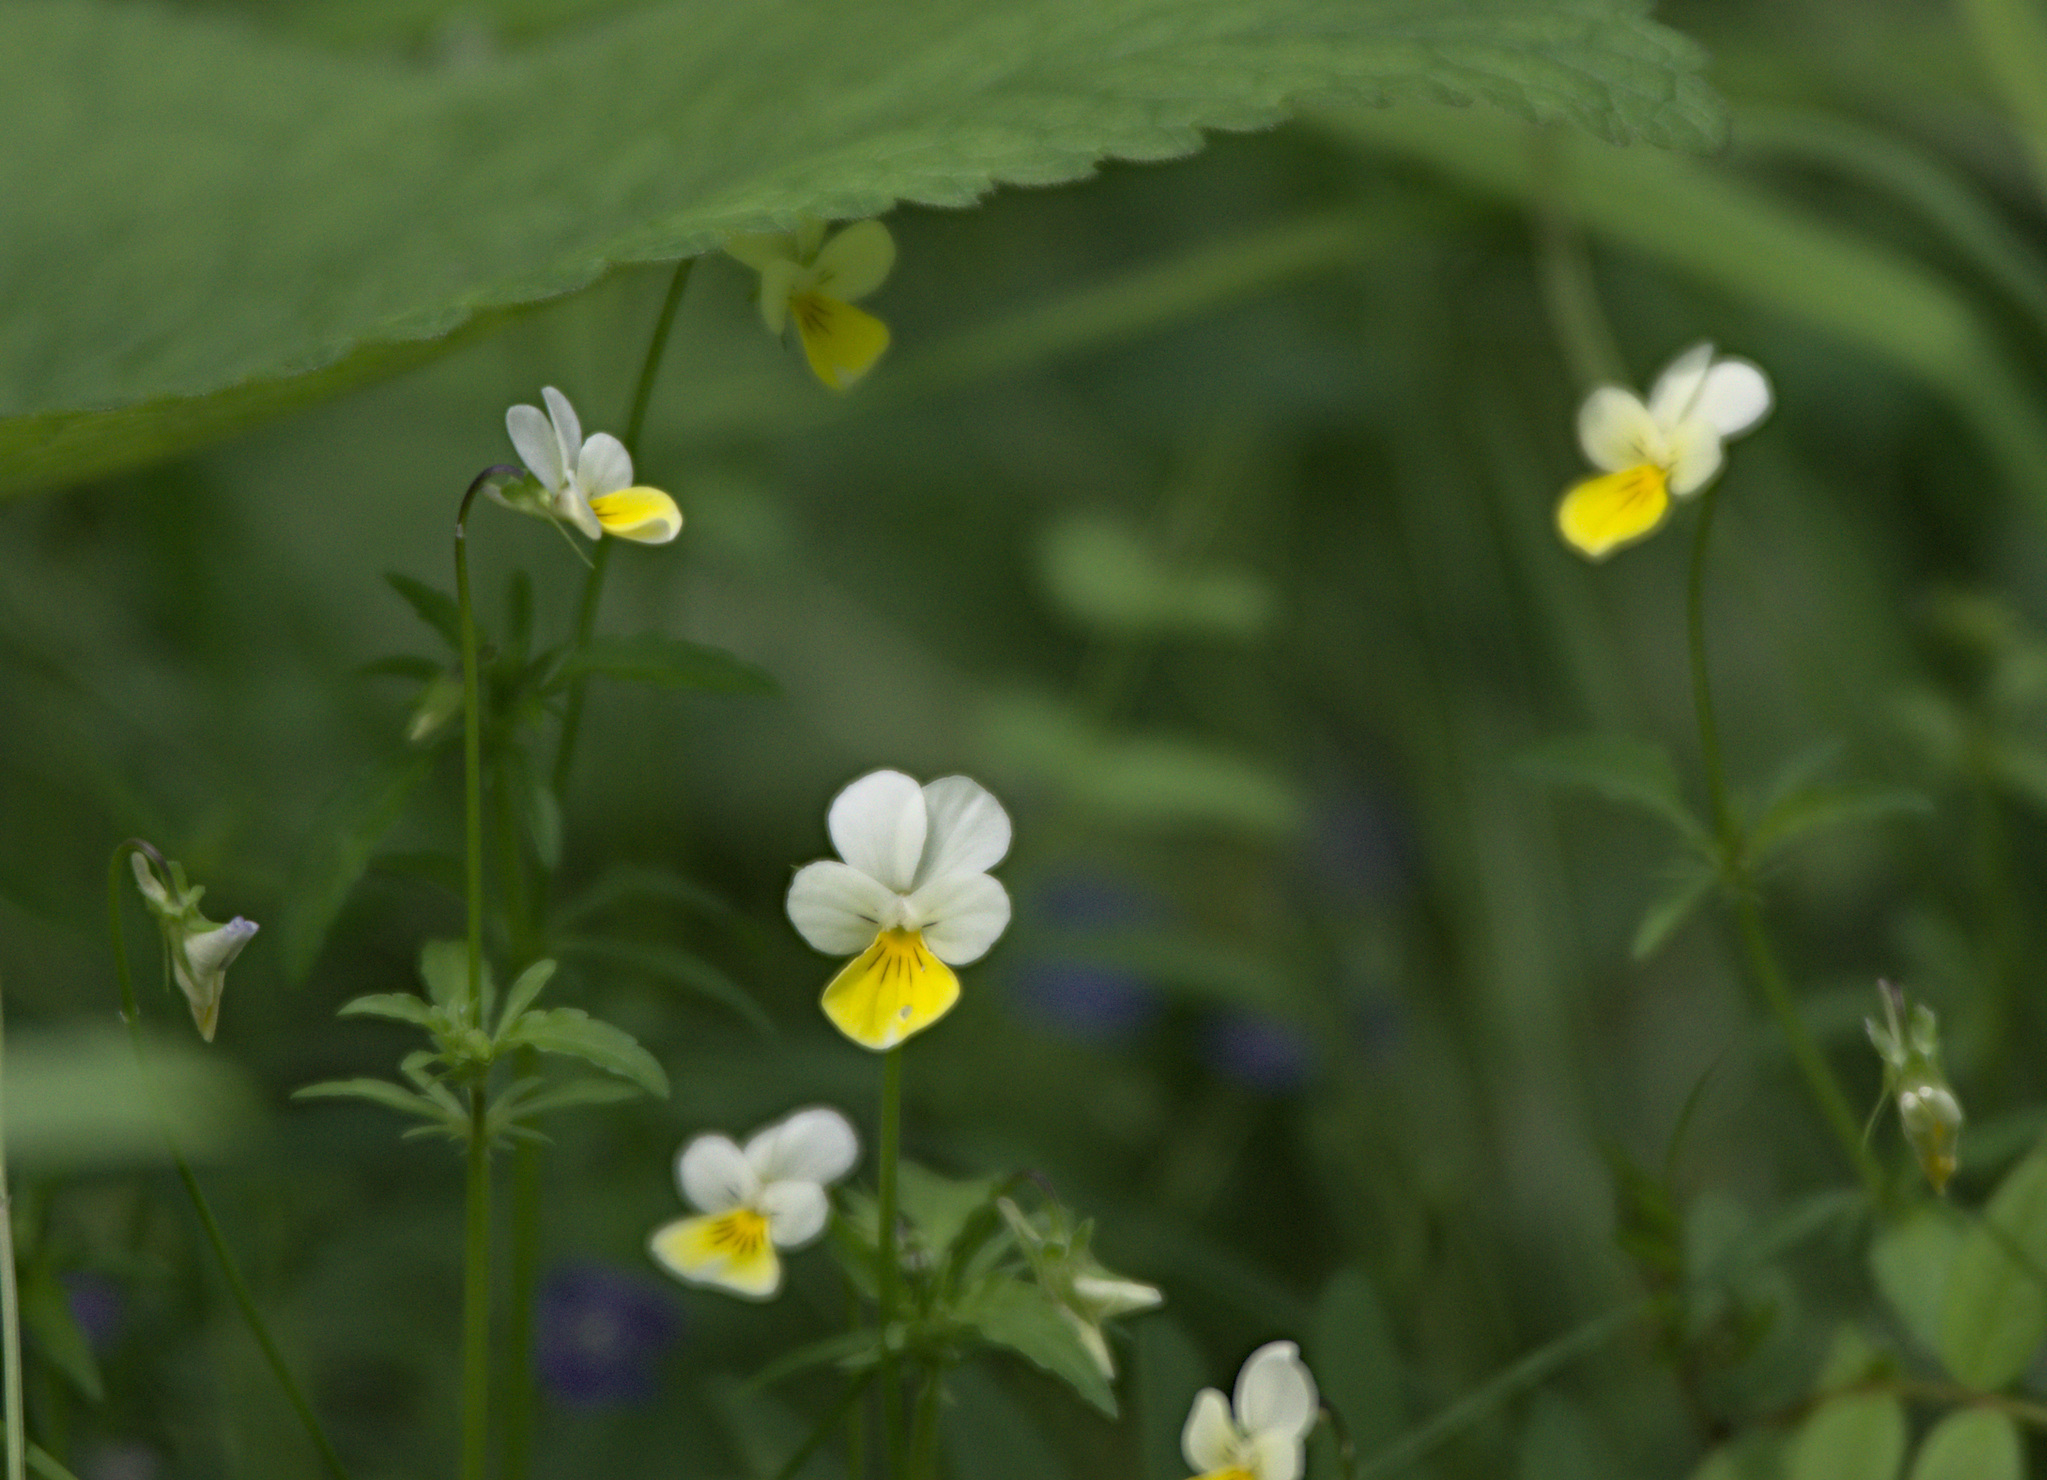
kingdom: Plantae
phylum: Tracheophyta
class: Magnoliopsida
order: Malpighiales
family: Violaceae
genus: Viola
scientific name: Viola arvensis
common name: Field pansy
